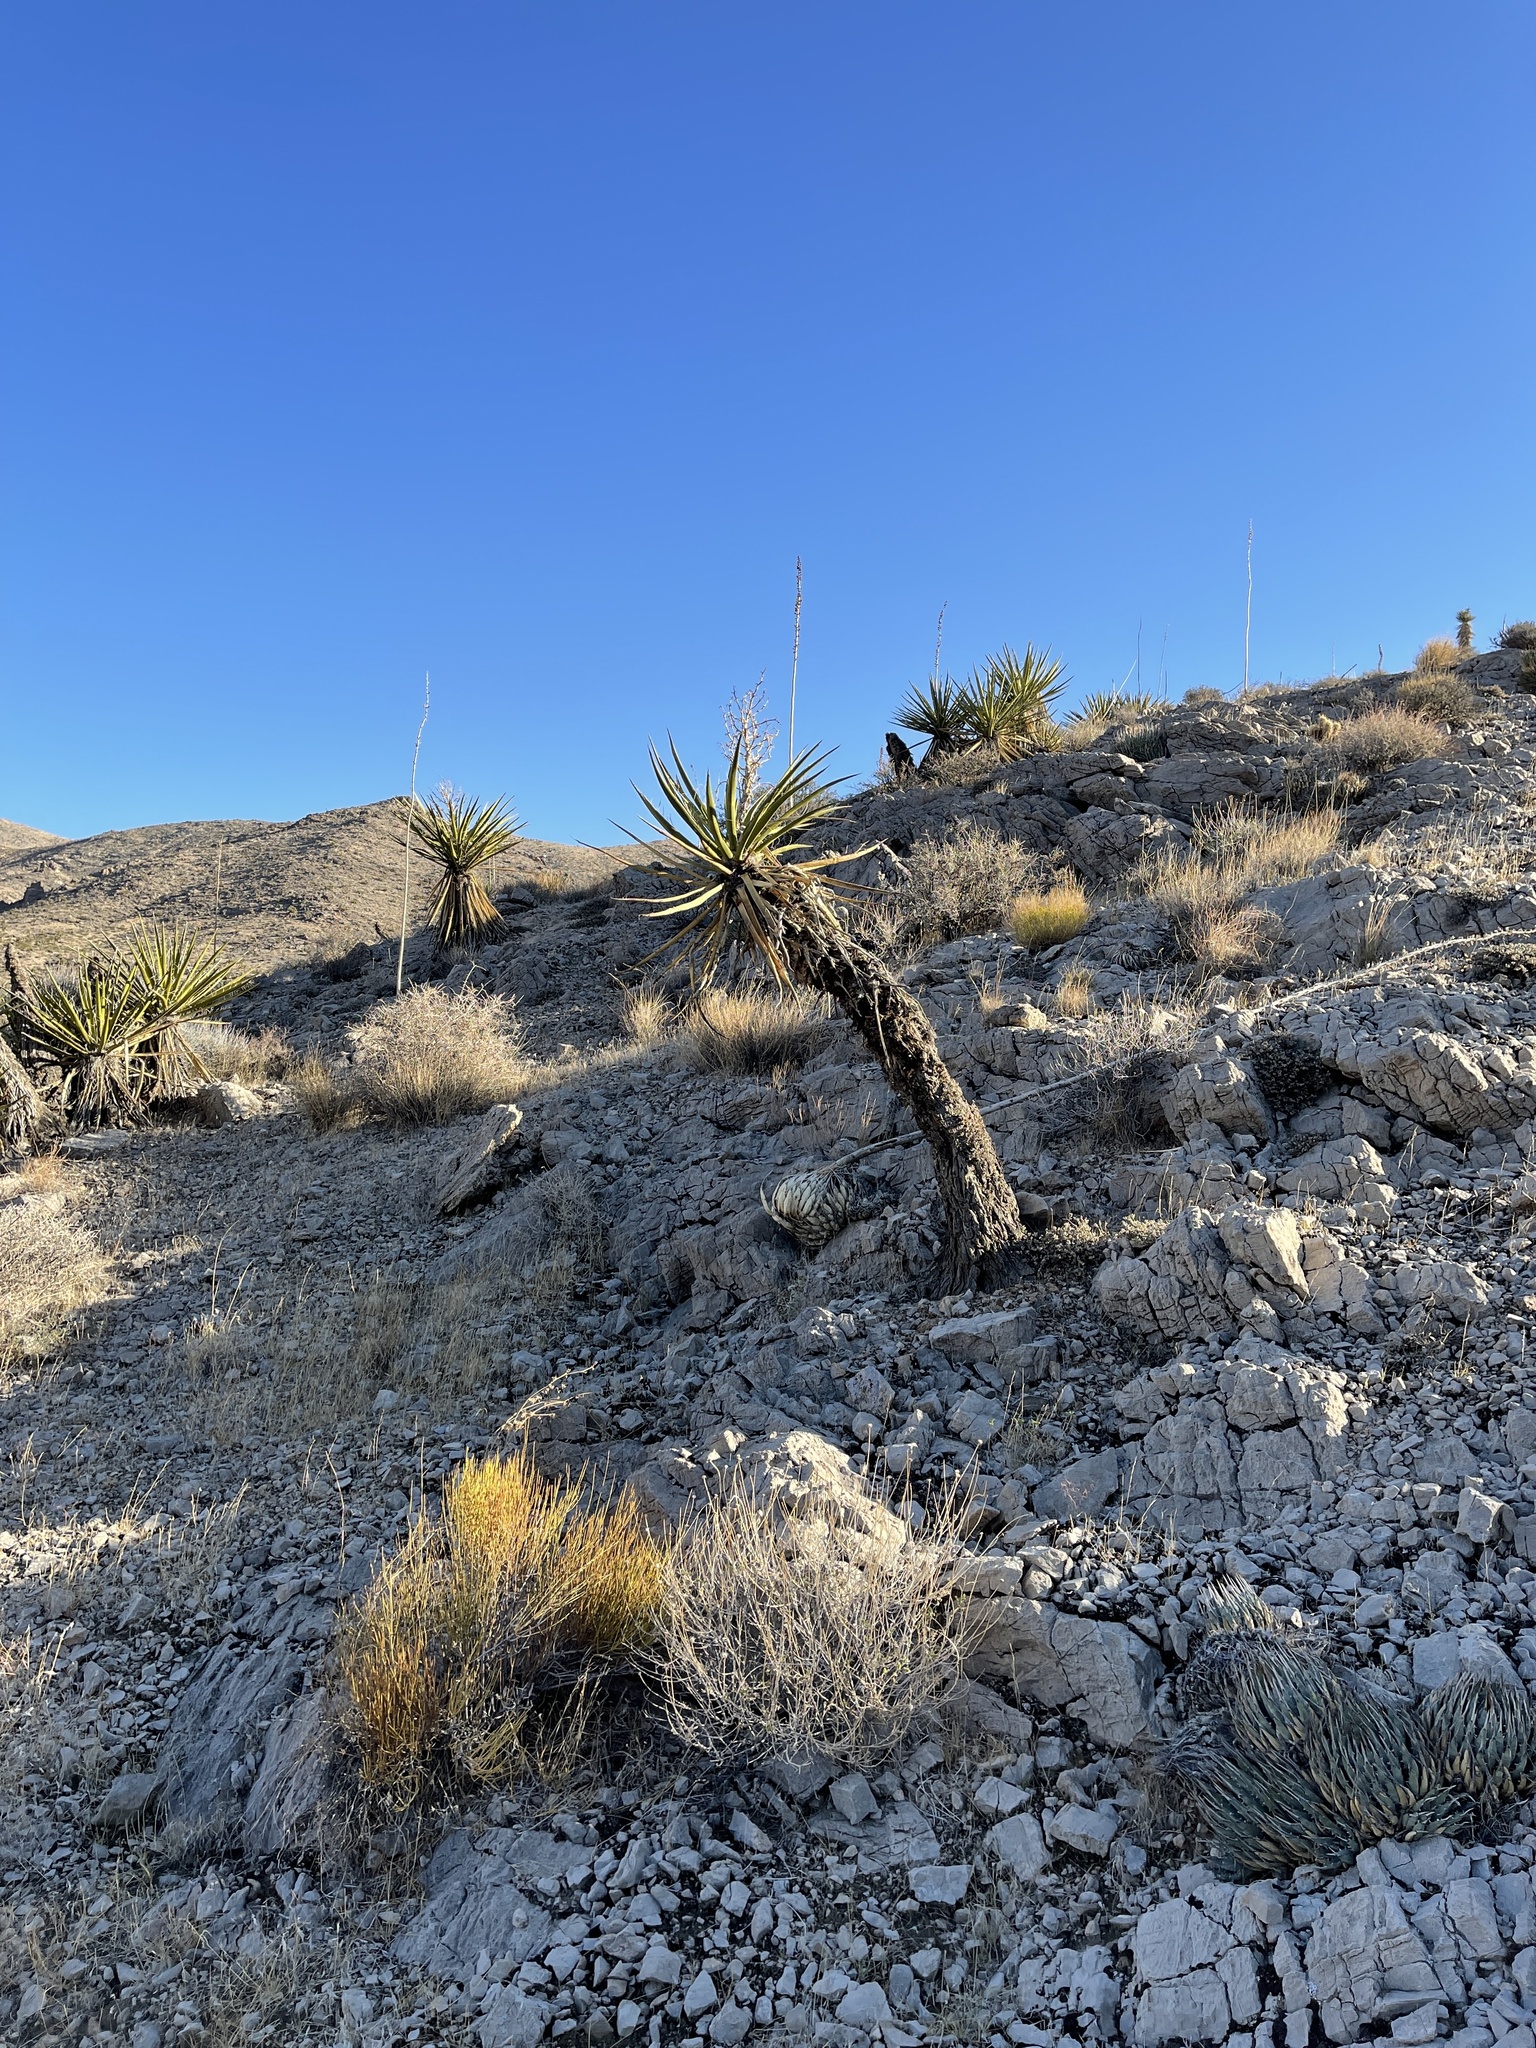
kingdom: Plantae
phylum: Tracheophyta
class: Liliopsida
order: Asparagales
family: Asparagaceae
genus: Yucca
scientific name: Yucca schidigera
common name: Mojave yucca
